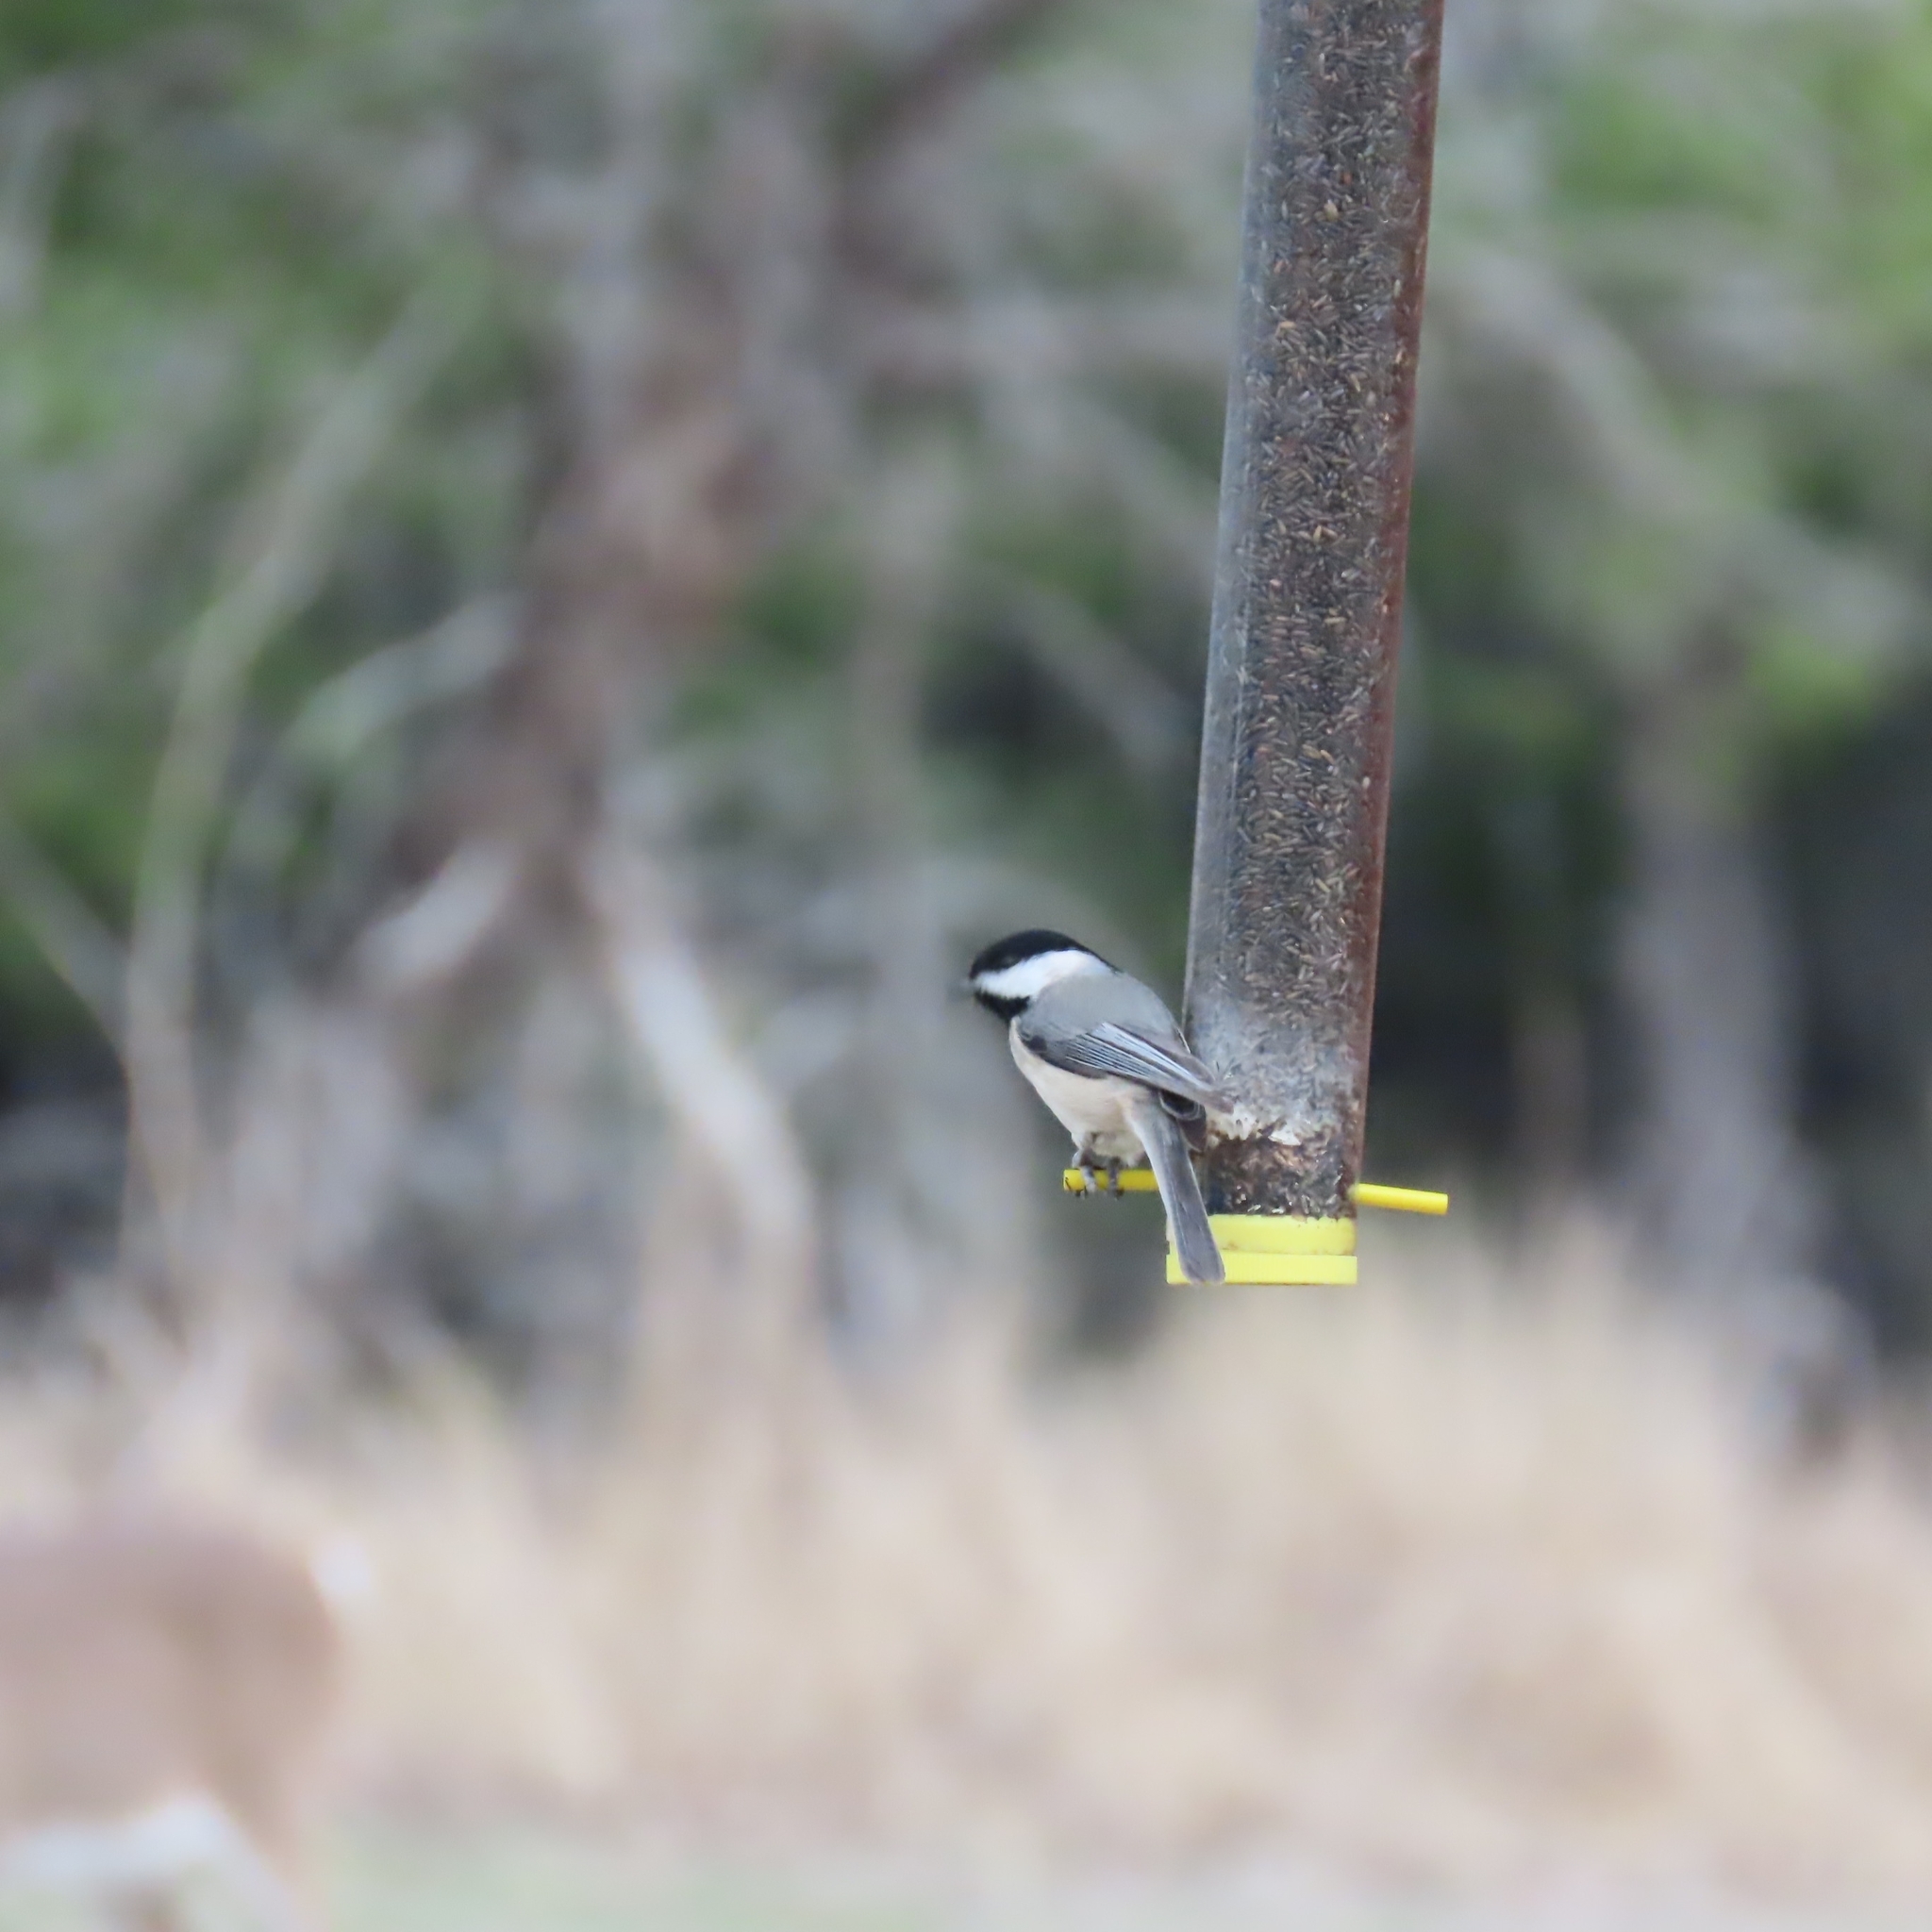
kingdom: Animalia
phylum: Chordata
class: Aves
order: Passeriformes
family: Paridae
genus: Poecile
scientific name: Poecile carolinensis
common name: Carolina chickadee
